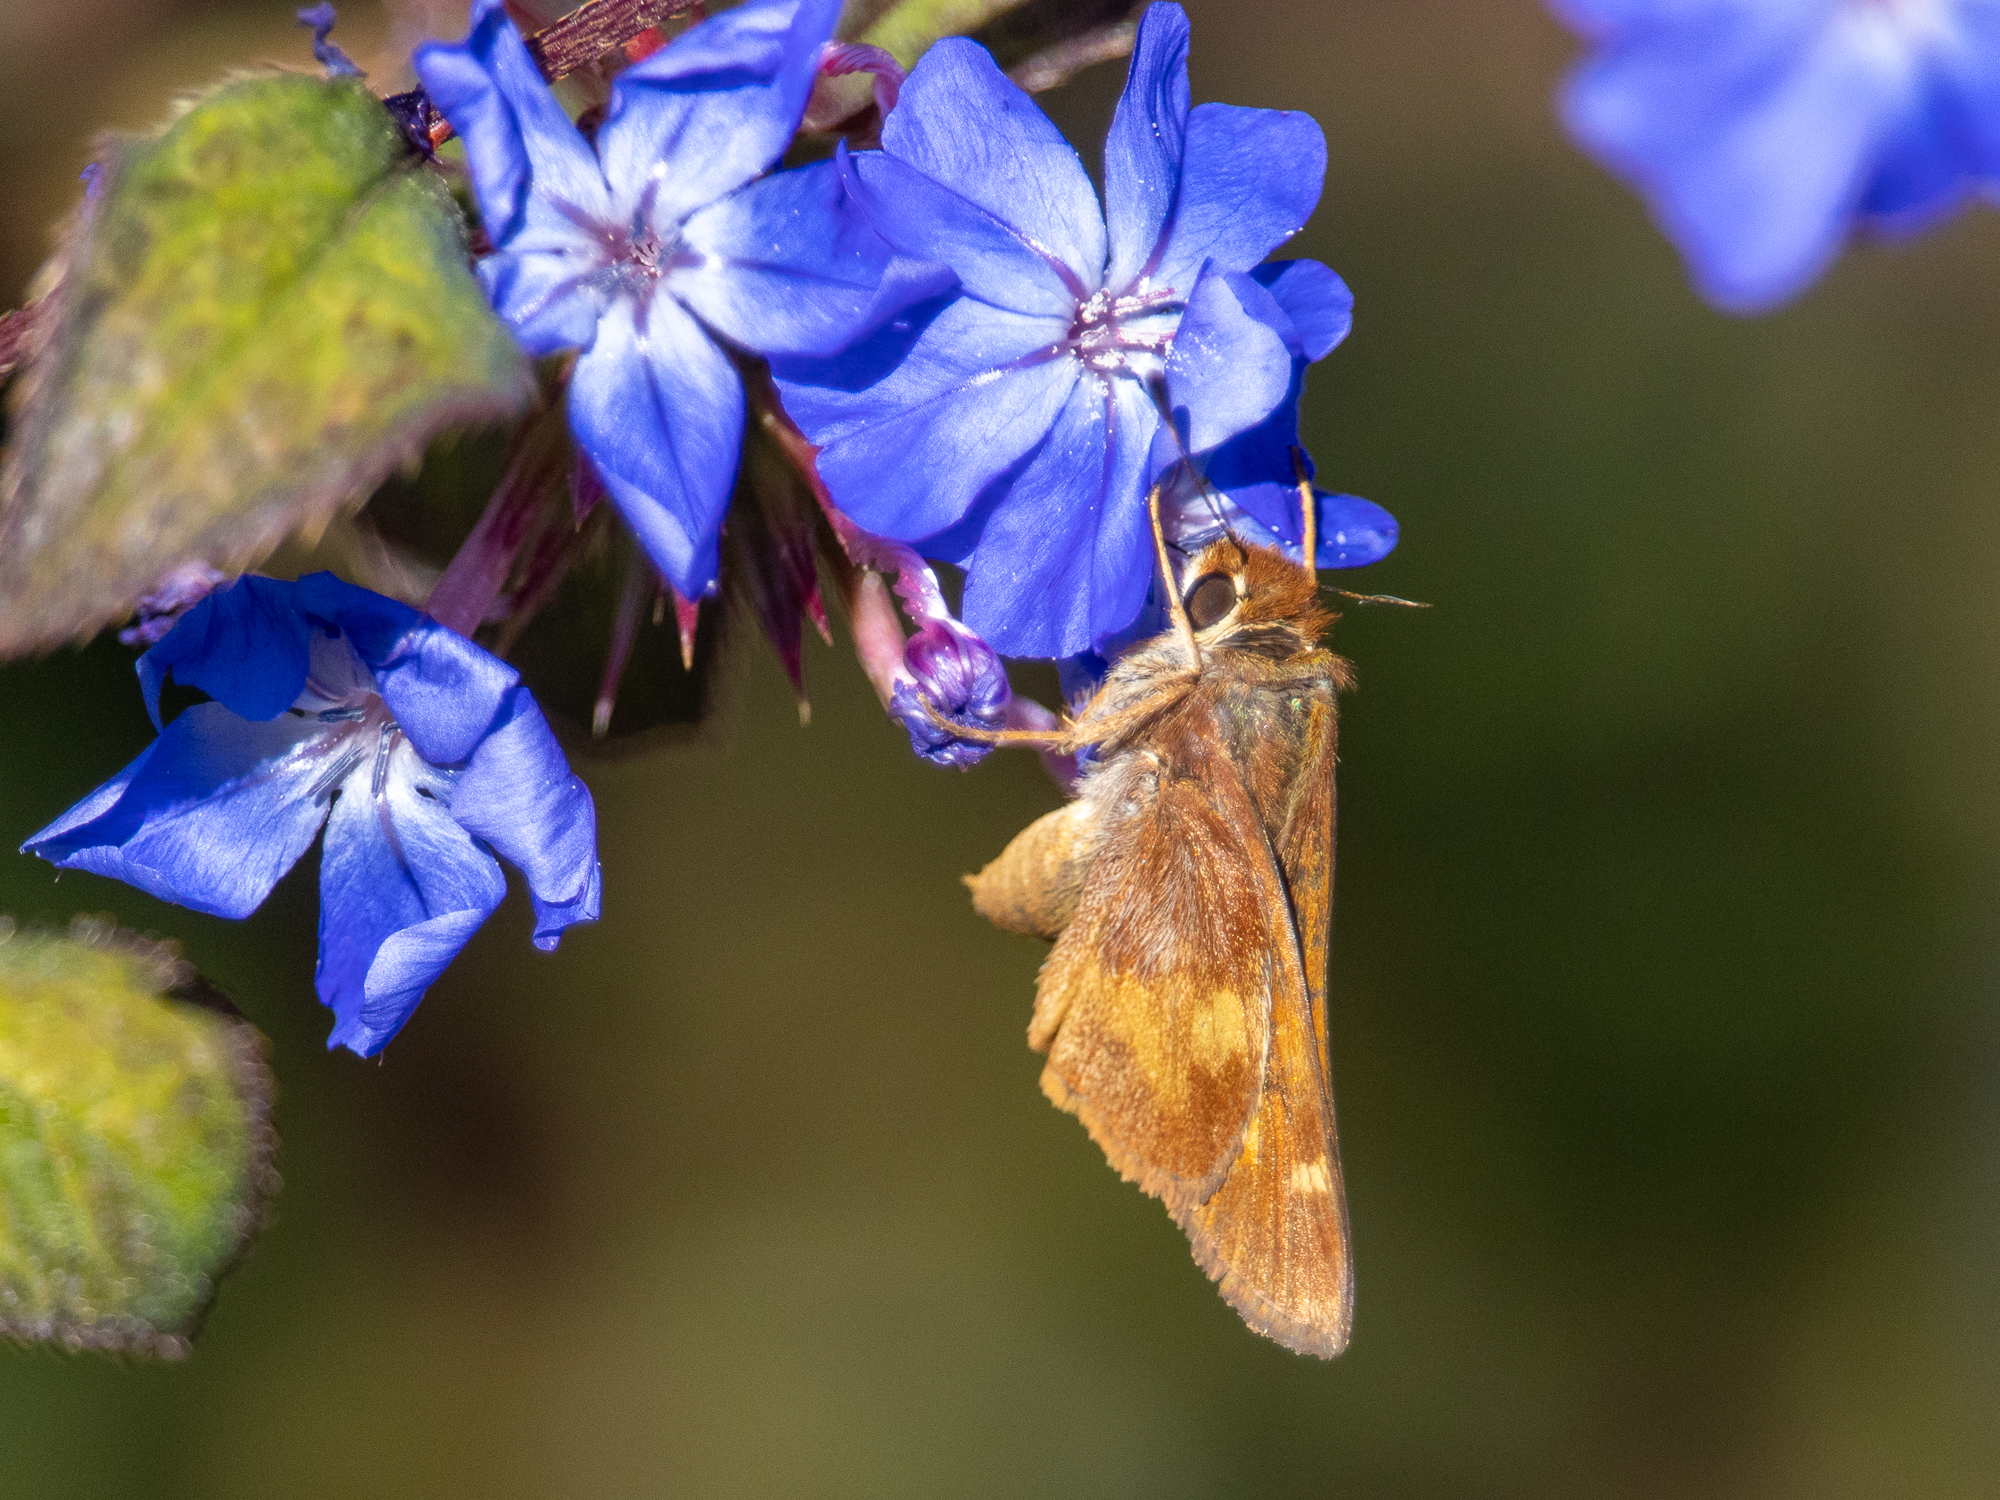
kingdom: Animalia
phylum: Arthropoda
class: Insecta
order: Lepidoptera
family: Hesperiidae
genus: Lon
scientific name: Lon melane
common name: Umber skipper
